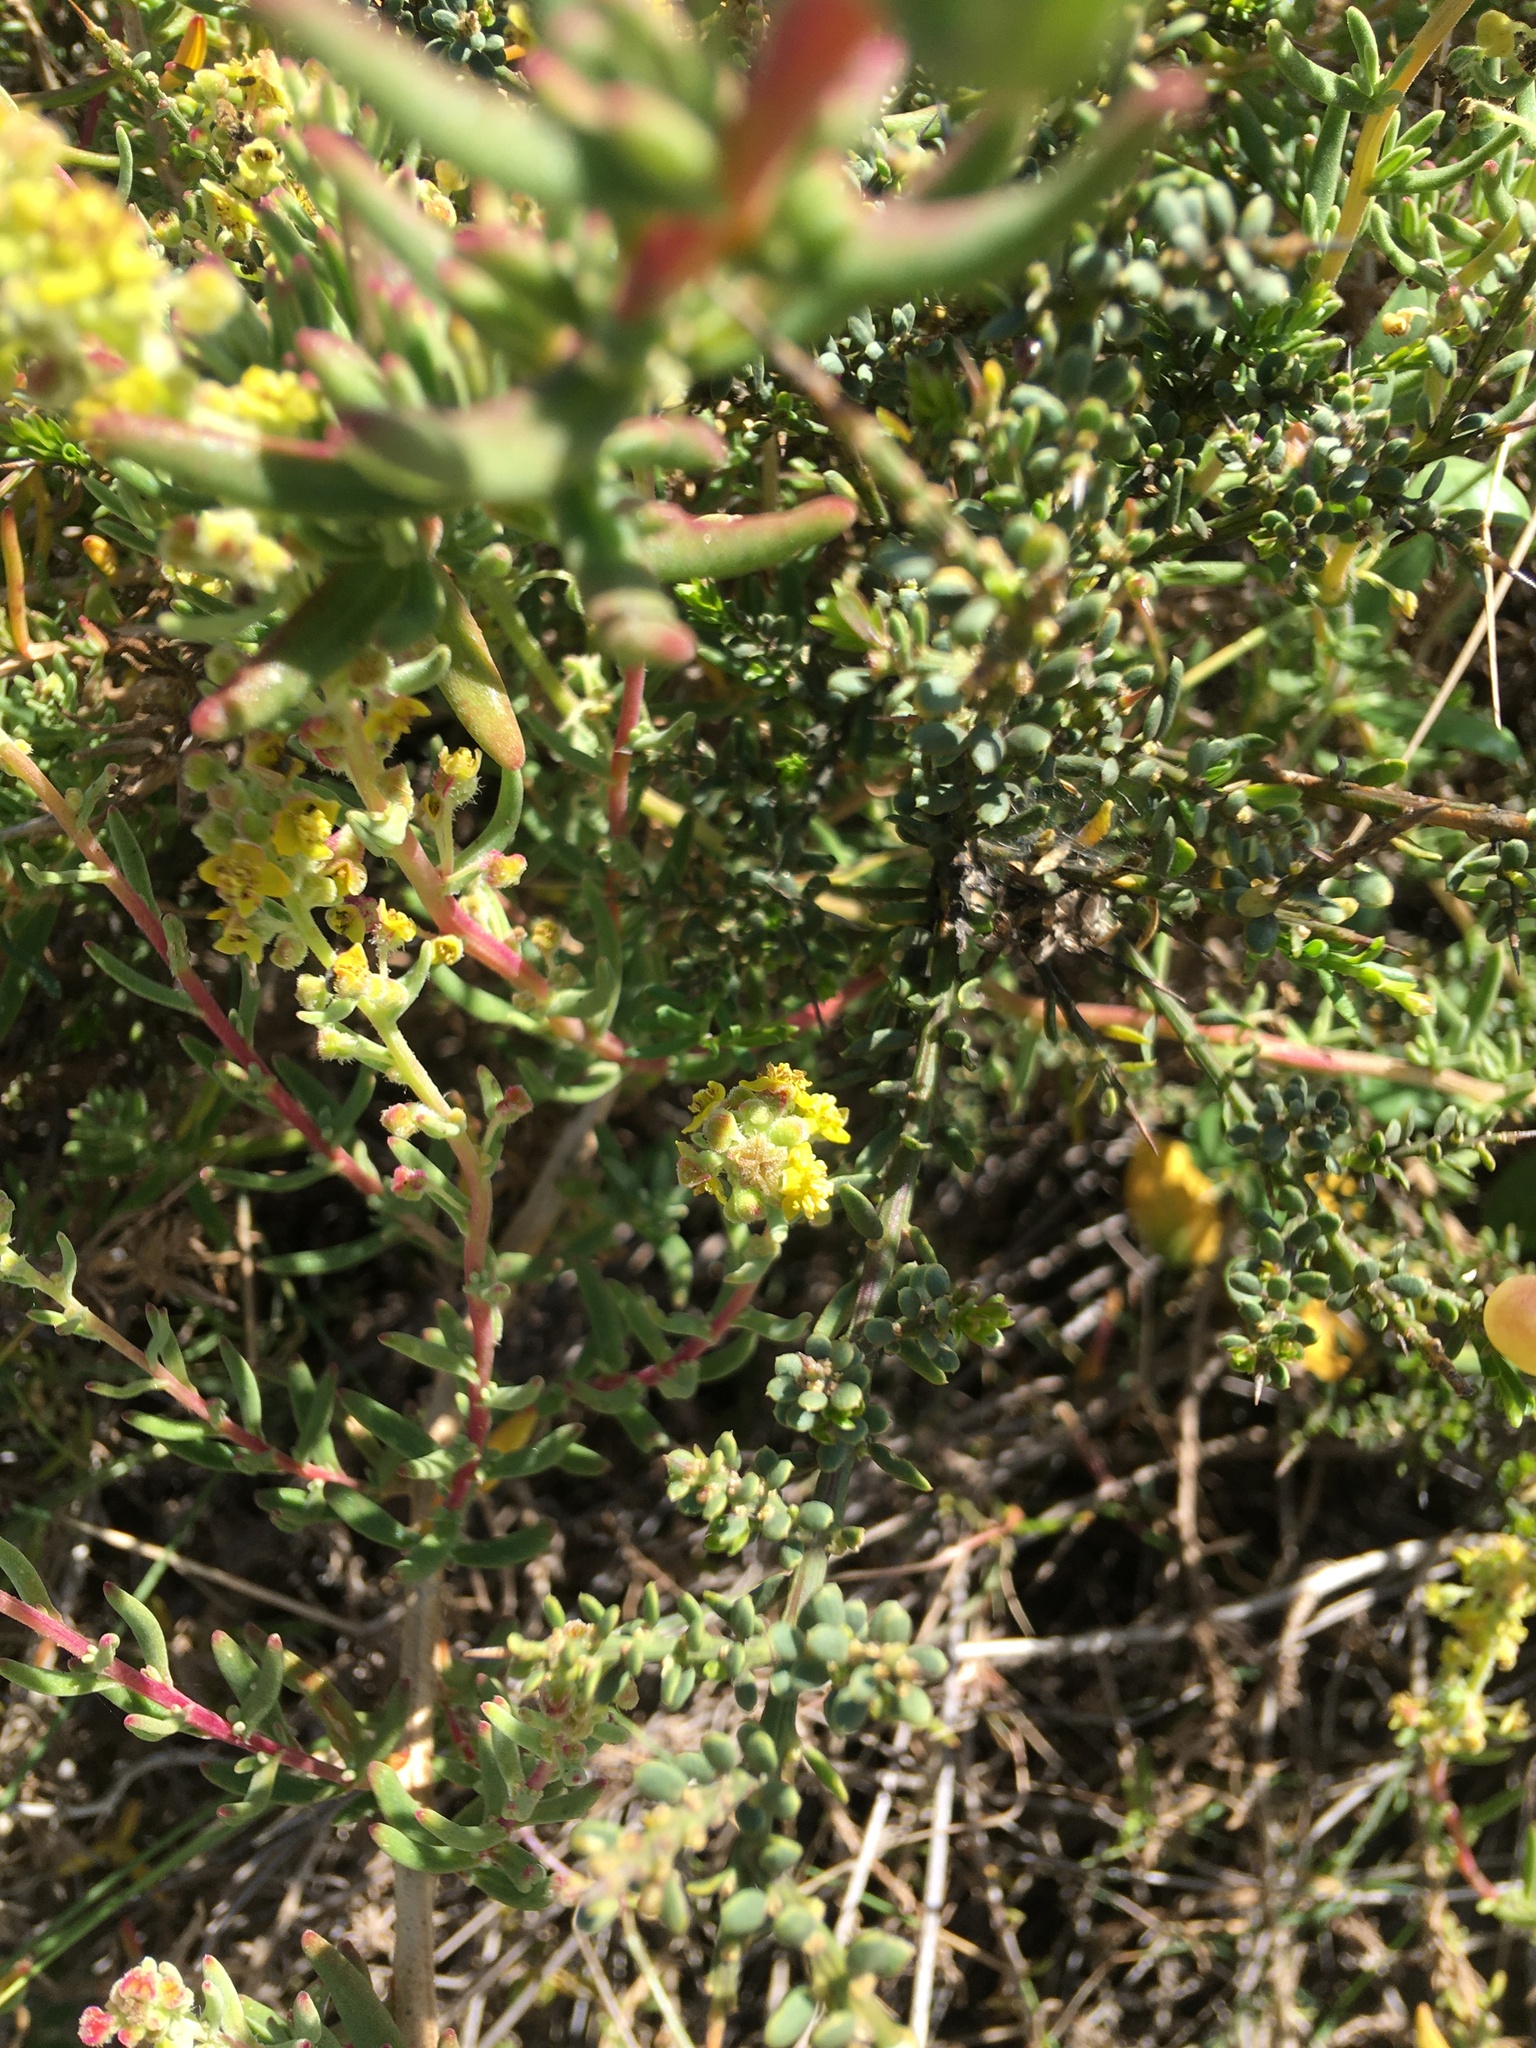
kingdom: Plantae
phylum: Tracheophyta
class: Magnoliopsida
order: Caryophyllales
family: Aizoaceae
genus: Tetragonia
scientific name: Tetragonia fruticosa
